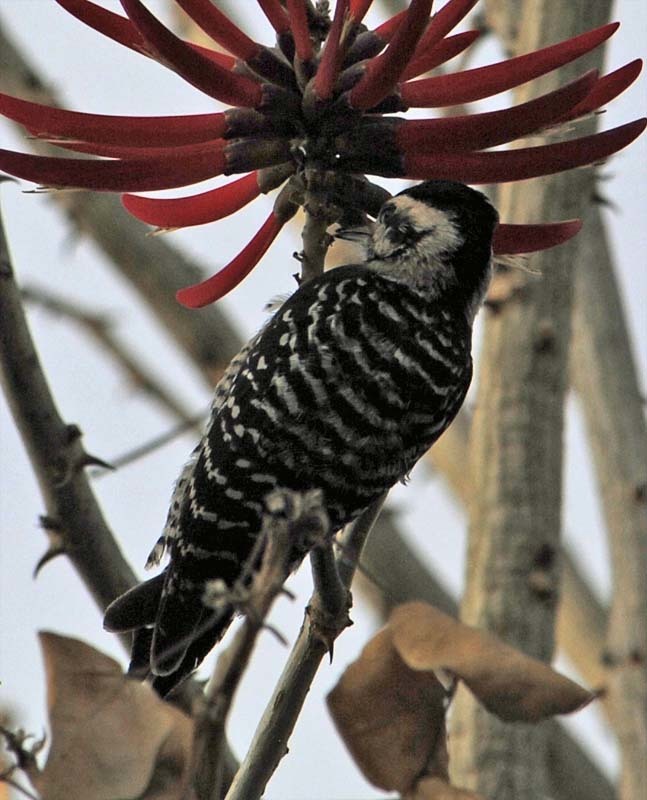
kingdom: Animalia
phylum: Chordata
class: Aves
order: Piciformes
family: Picidae
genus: Dryobates
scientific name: Dryobates scalaris
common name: Ladder-backed woodpecker
